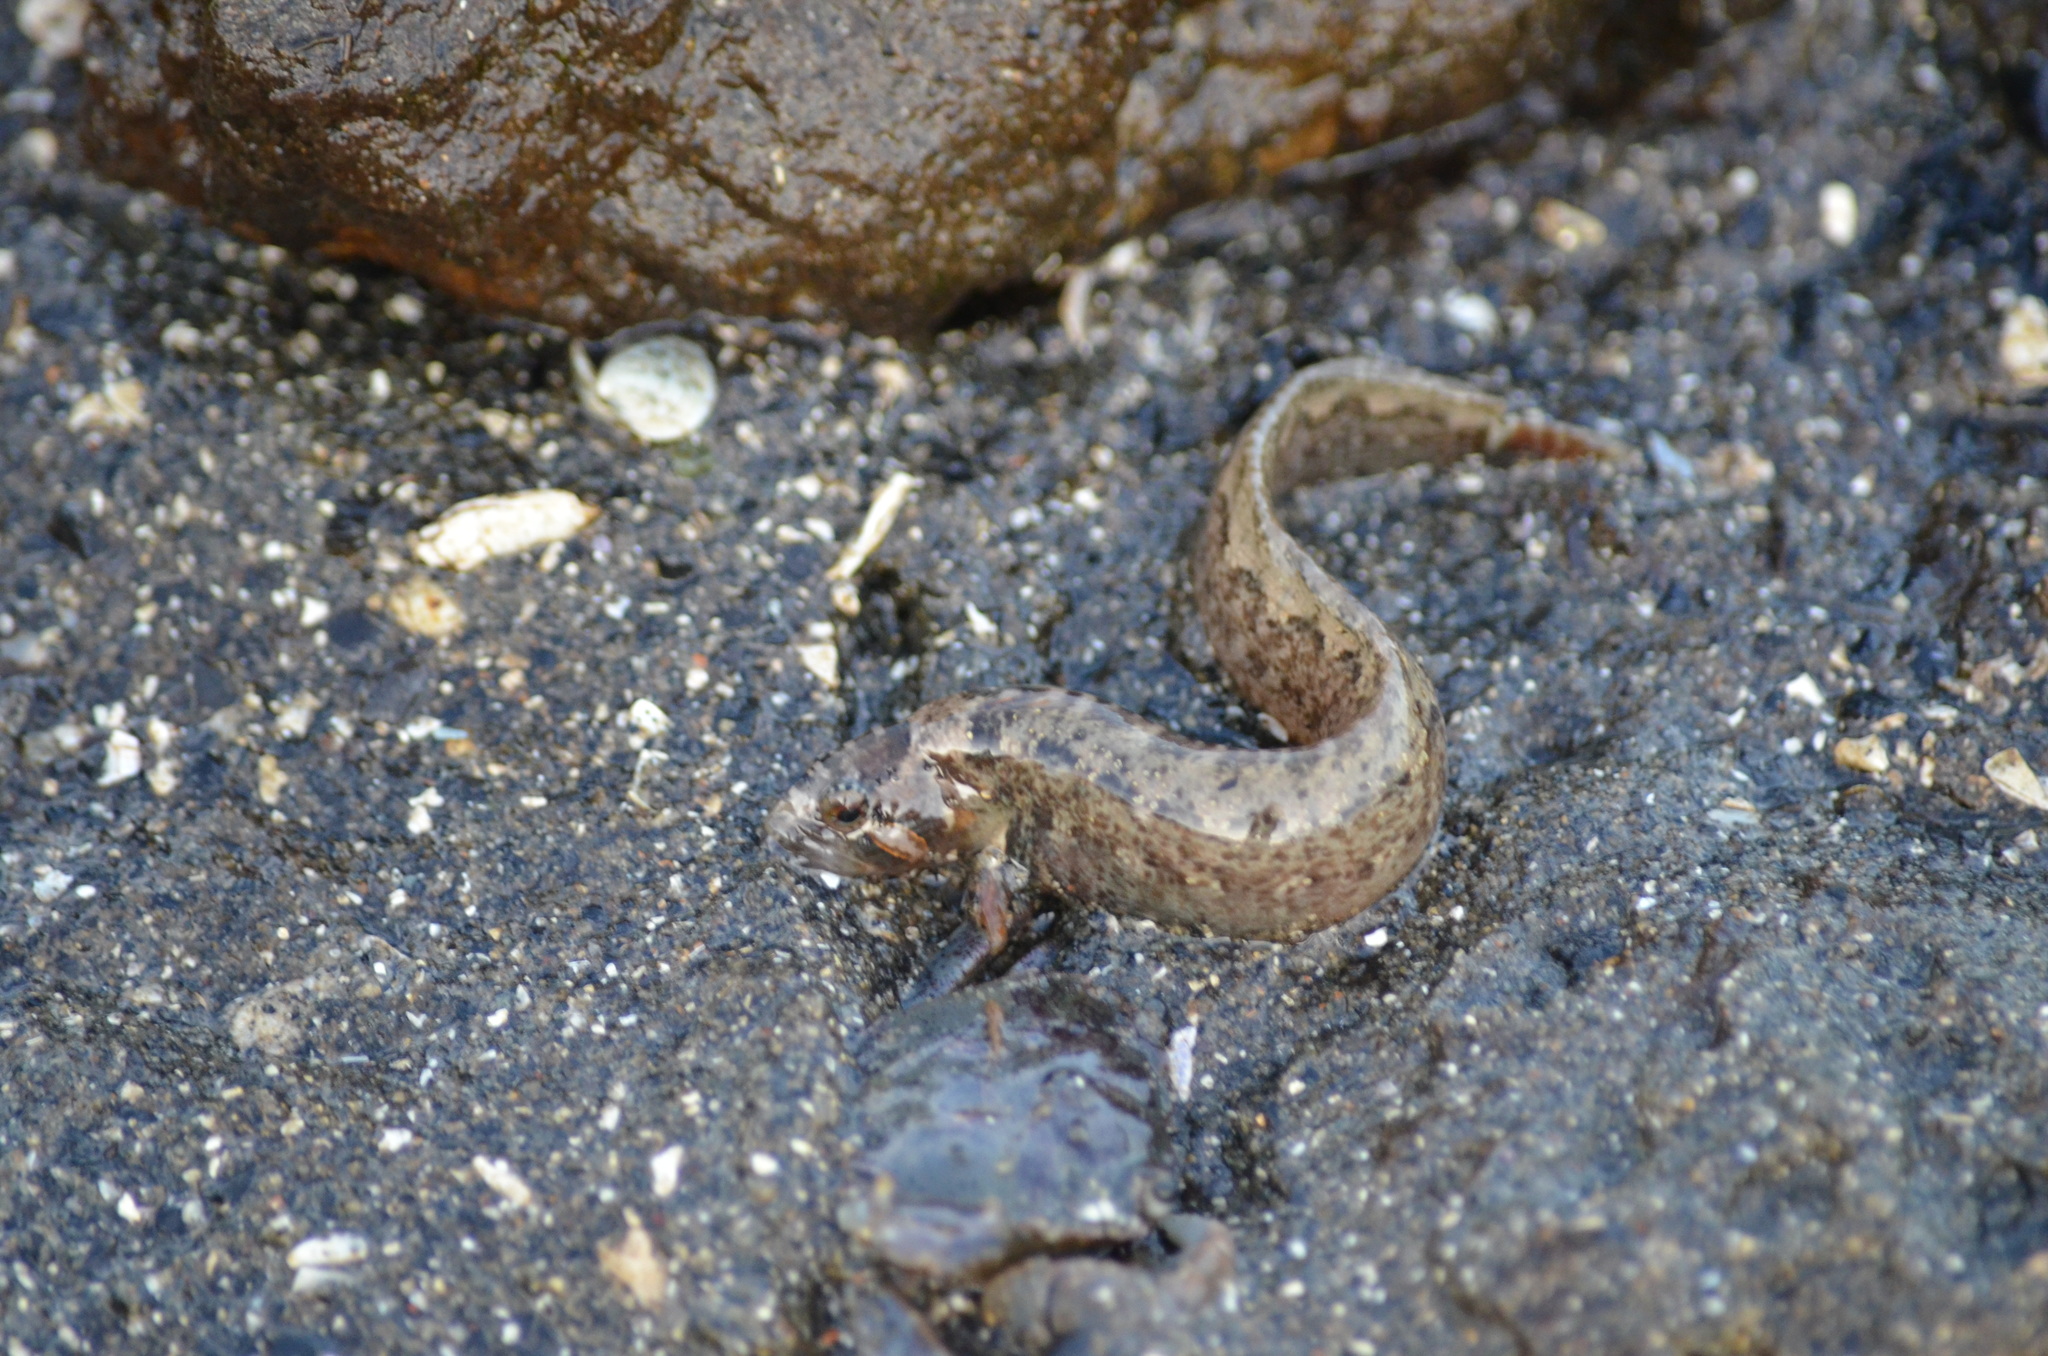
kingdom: Animalia
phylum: Chordata
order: Perciformes
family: Stichaeidae
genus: Anoplarchus
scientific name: Anoplarchus purpurescens
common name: High cockscomb
